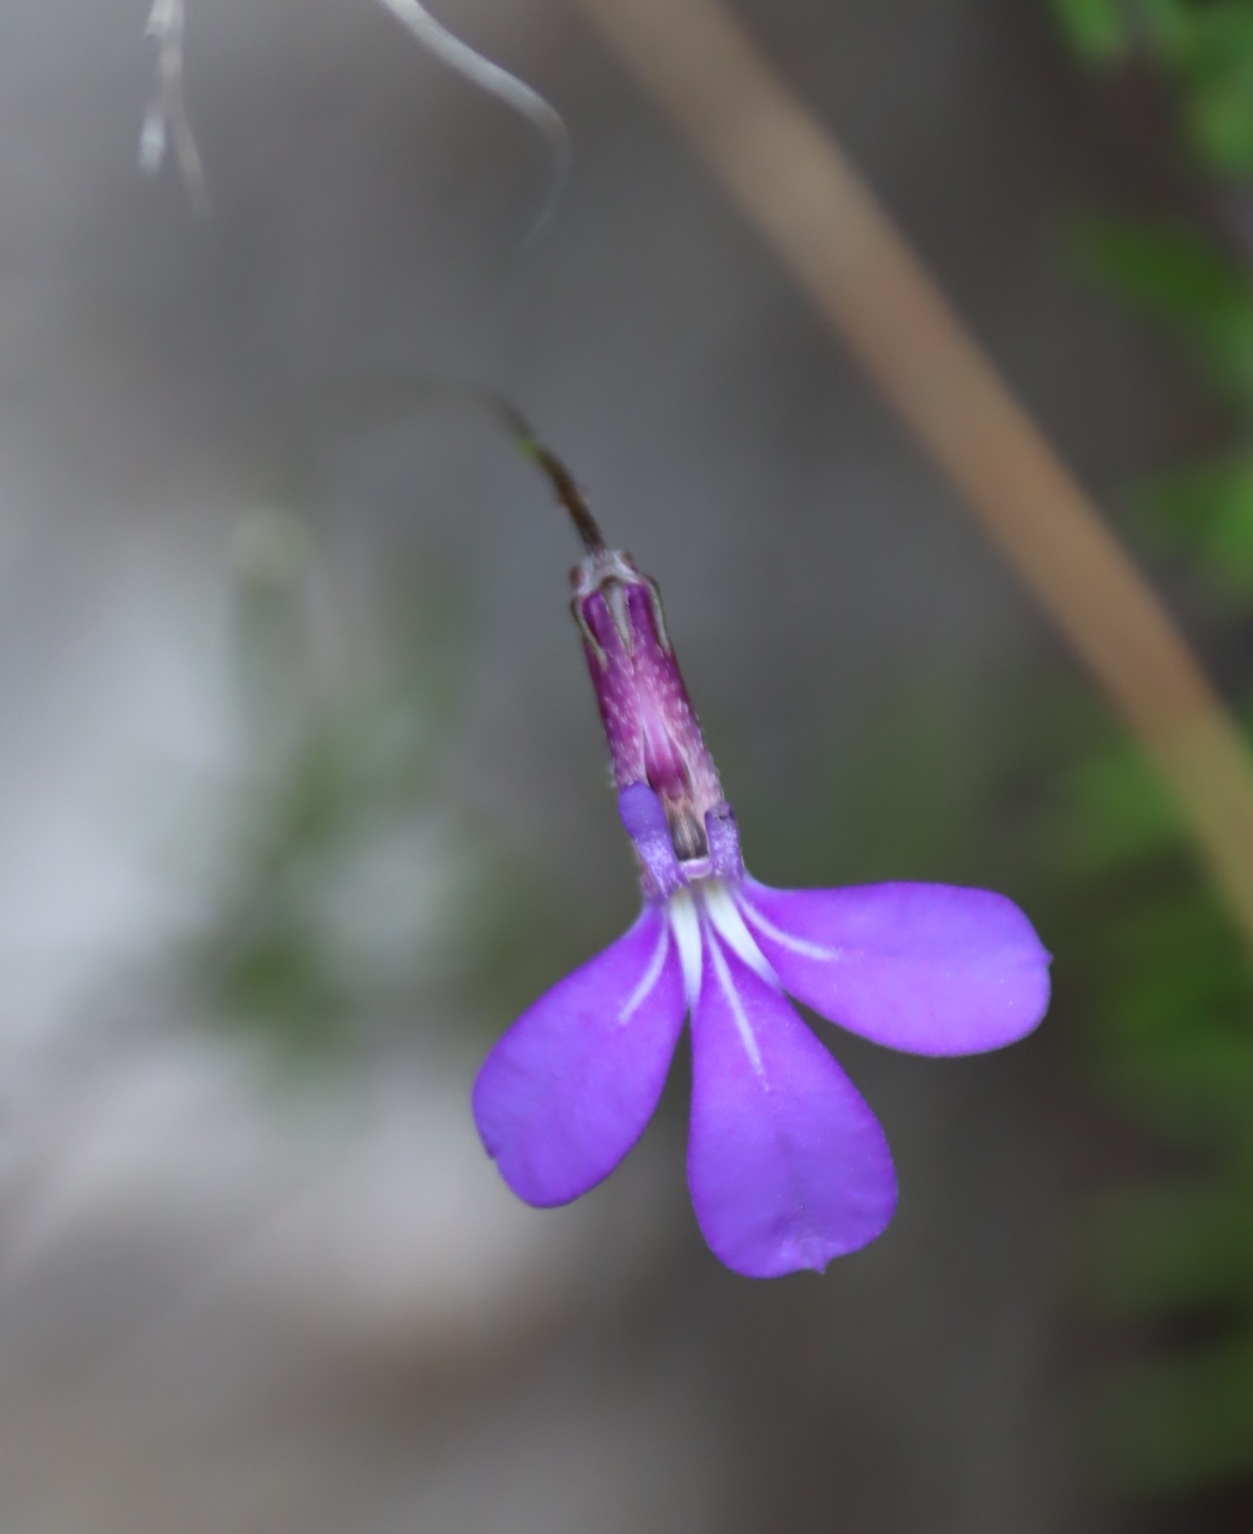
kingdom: Plantae
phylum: Tracheophyta
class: Magnoliopsida
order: Asterales
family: Campanulaceae
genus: Lobelia
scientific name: Lobelia tomentosa
